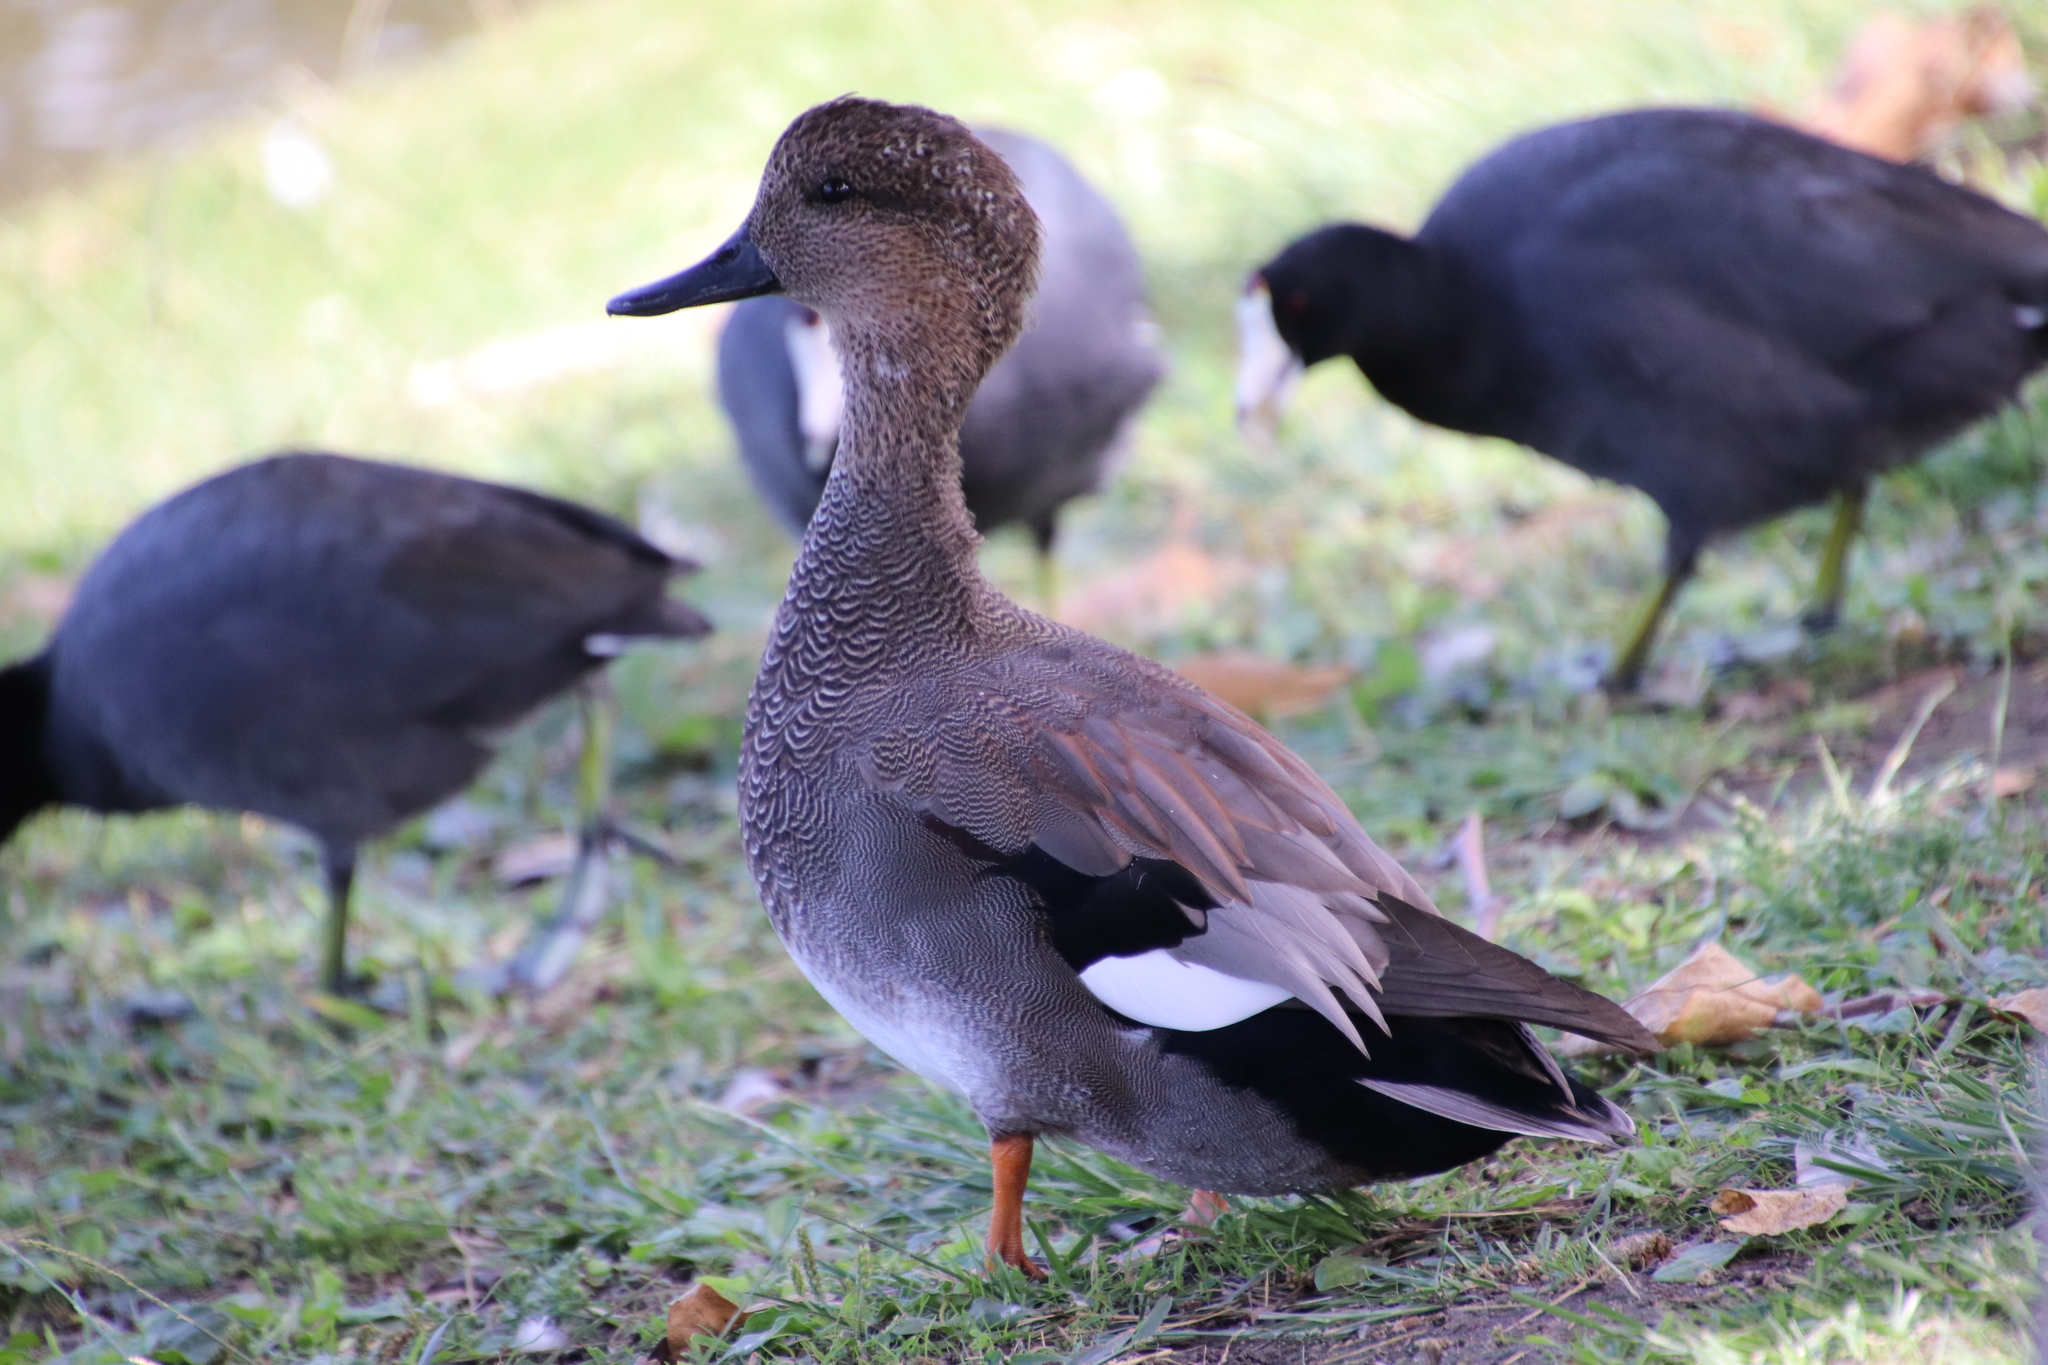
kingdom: Animalia
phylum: Chordata
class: Aves
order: Anseriformes
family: Anatidae
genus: Mareca
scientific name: Mareca strepera
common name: Gadwall
